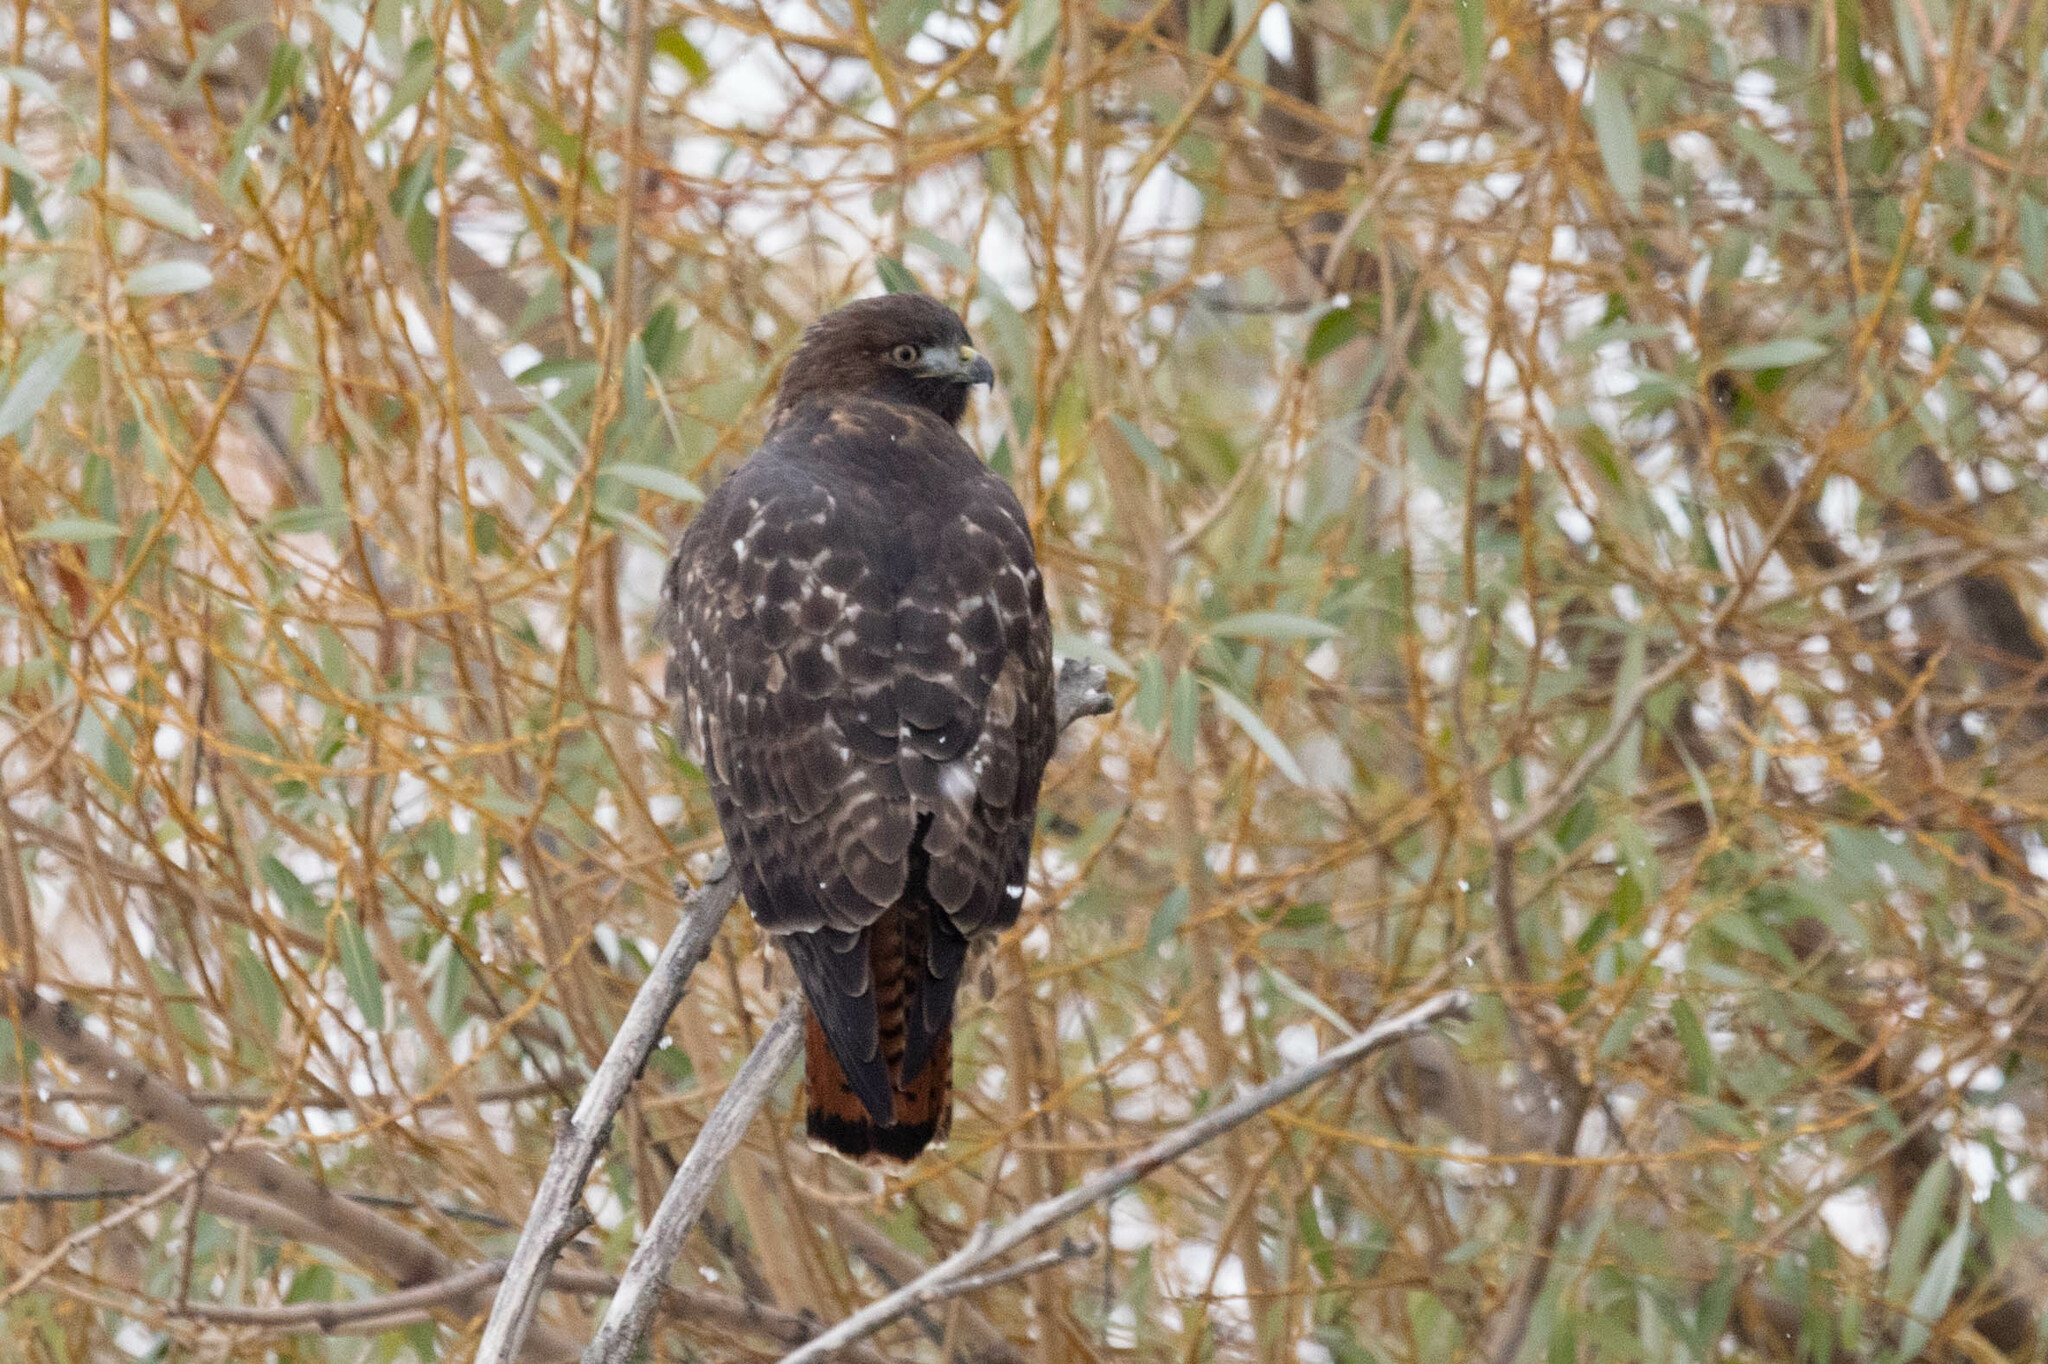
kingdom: Animalia
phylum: Chordata
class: Aves
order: Accipitriformes
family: Accipitridae
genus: Buteo
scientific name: Buteo jamaicensis
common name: Red-tailed hawk
